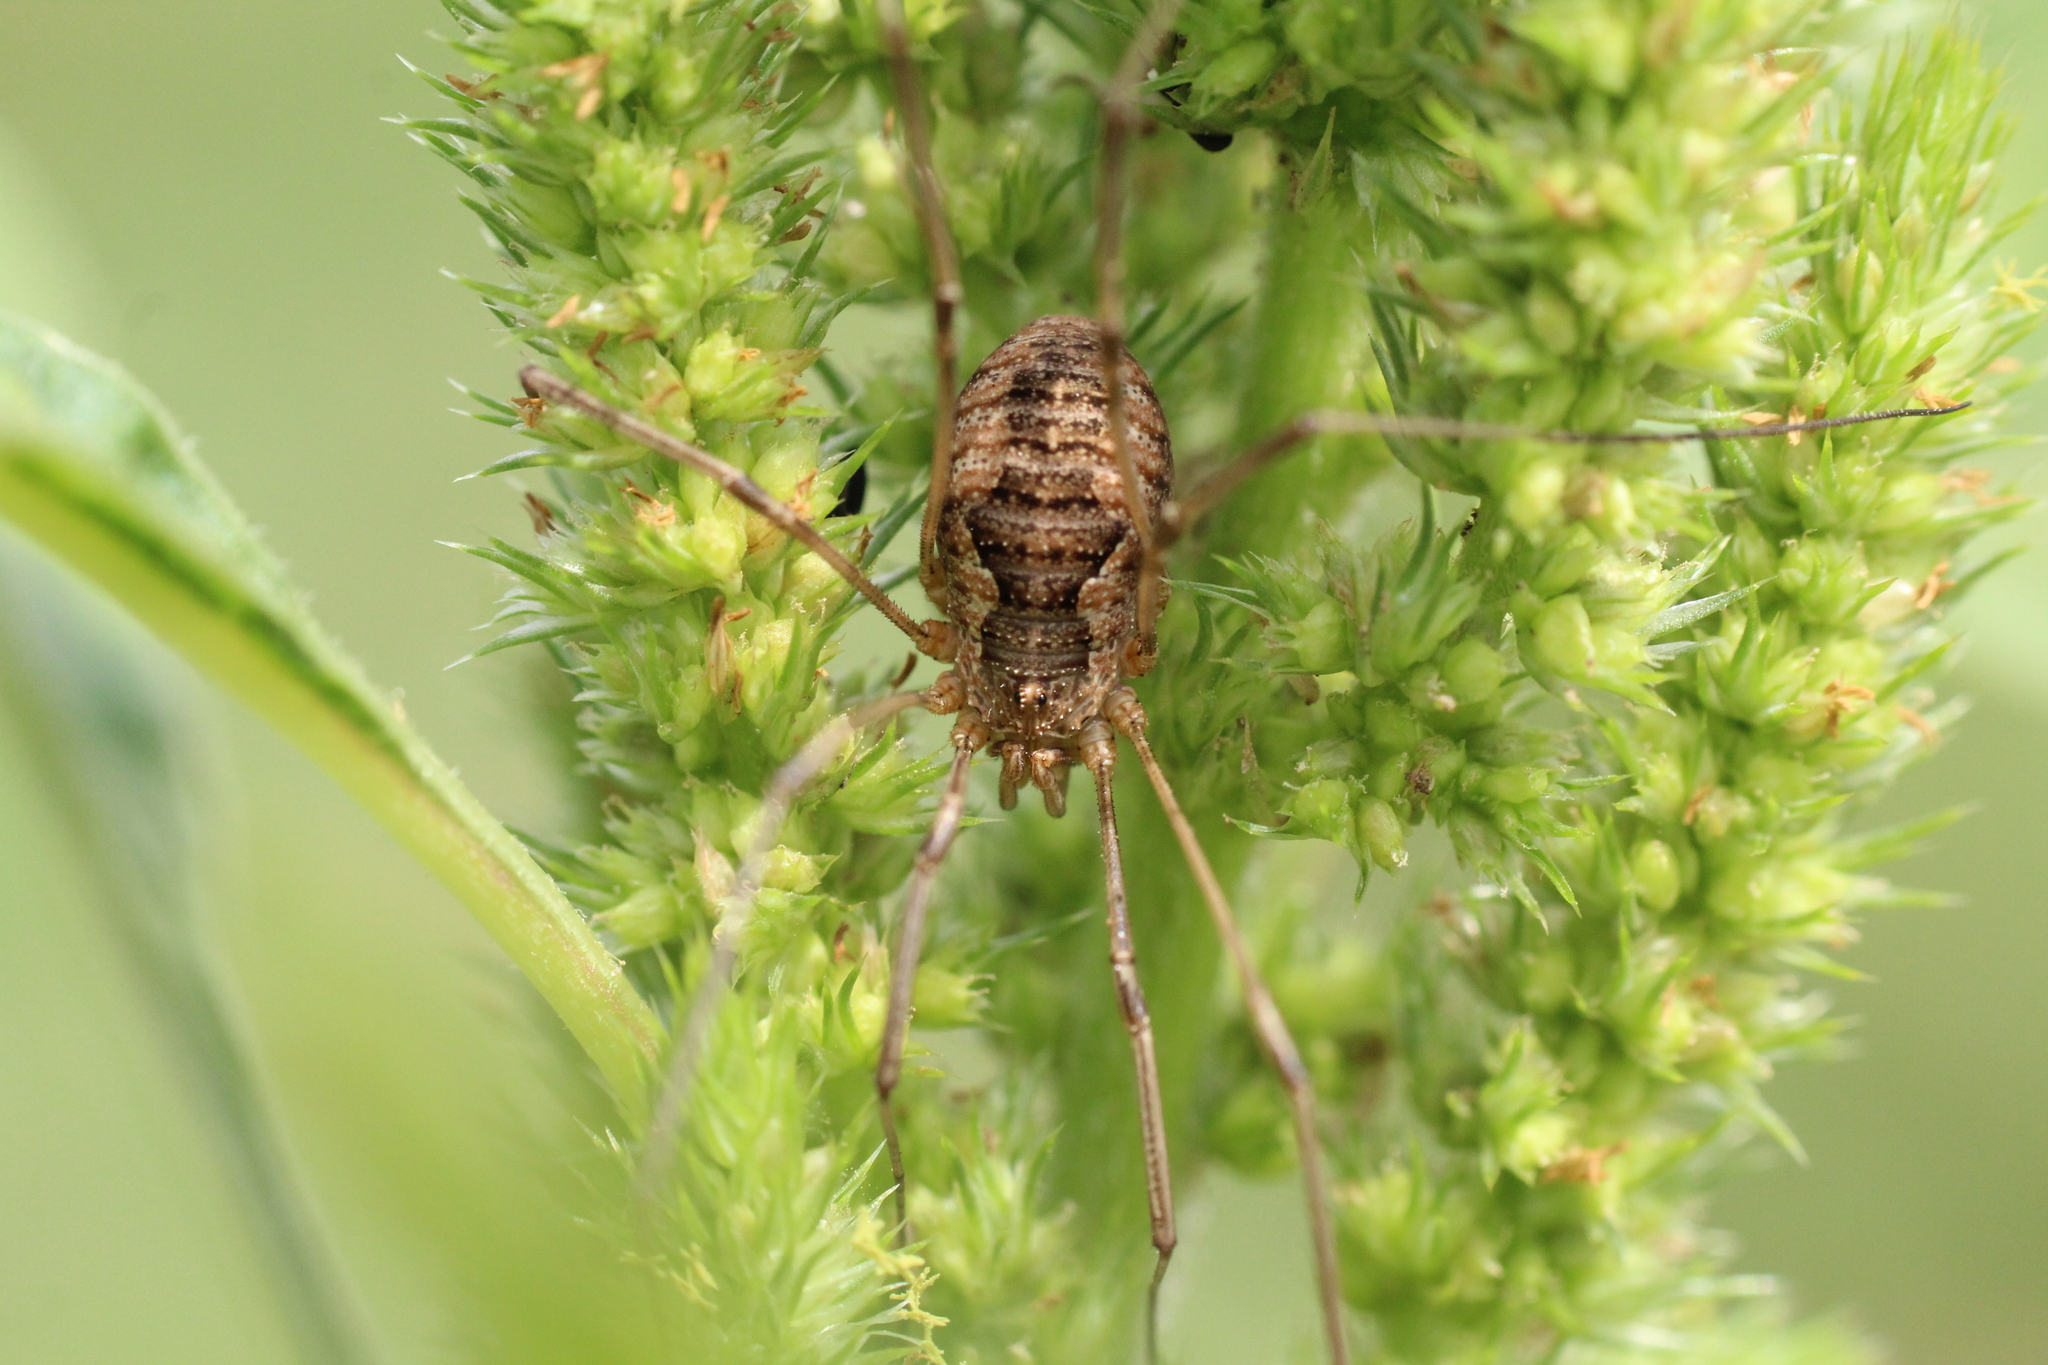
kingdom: Animalia
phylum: Arthropoda
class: Arachnida
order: Opiliones
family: Phalangiidae
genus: Phalangium
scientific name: Phalangium opilio
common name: Daddy longleg
